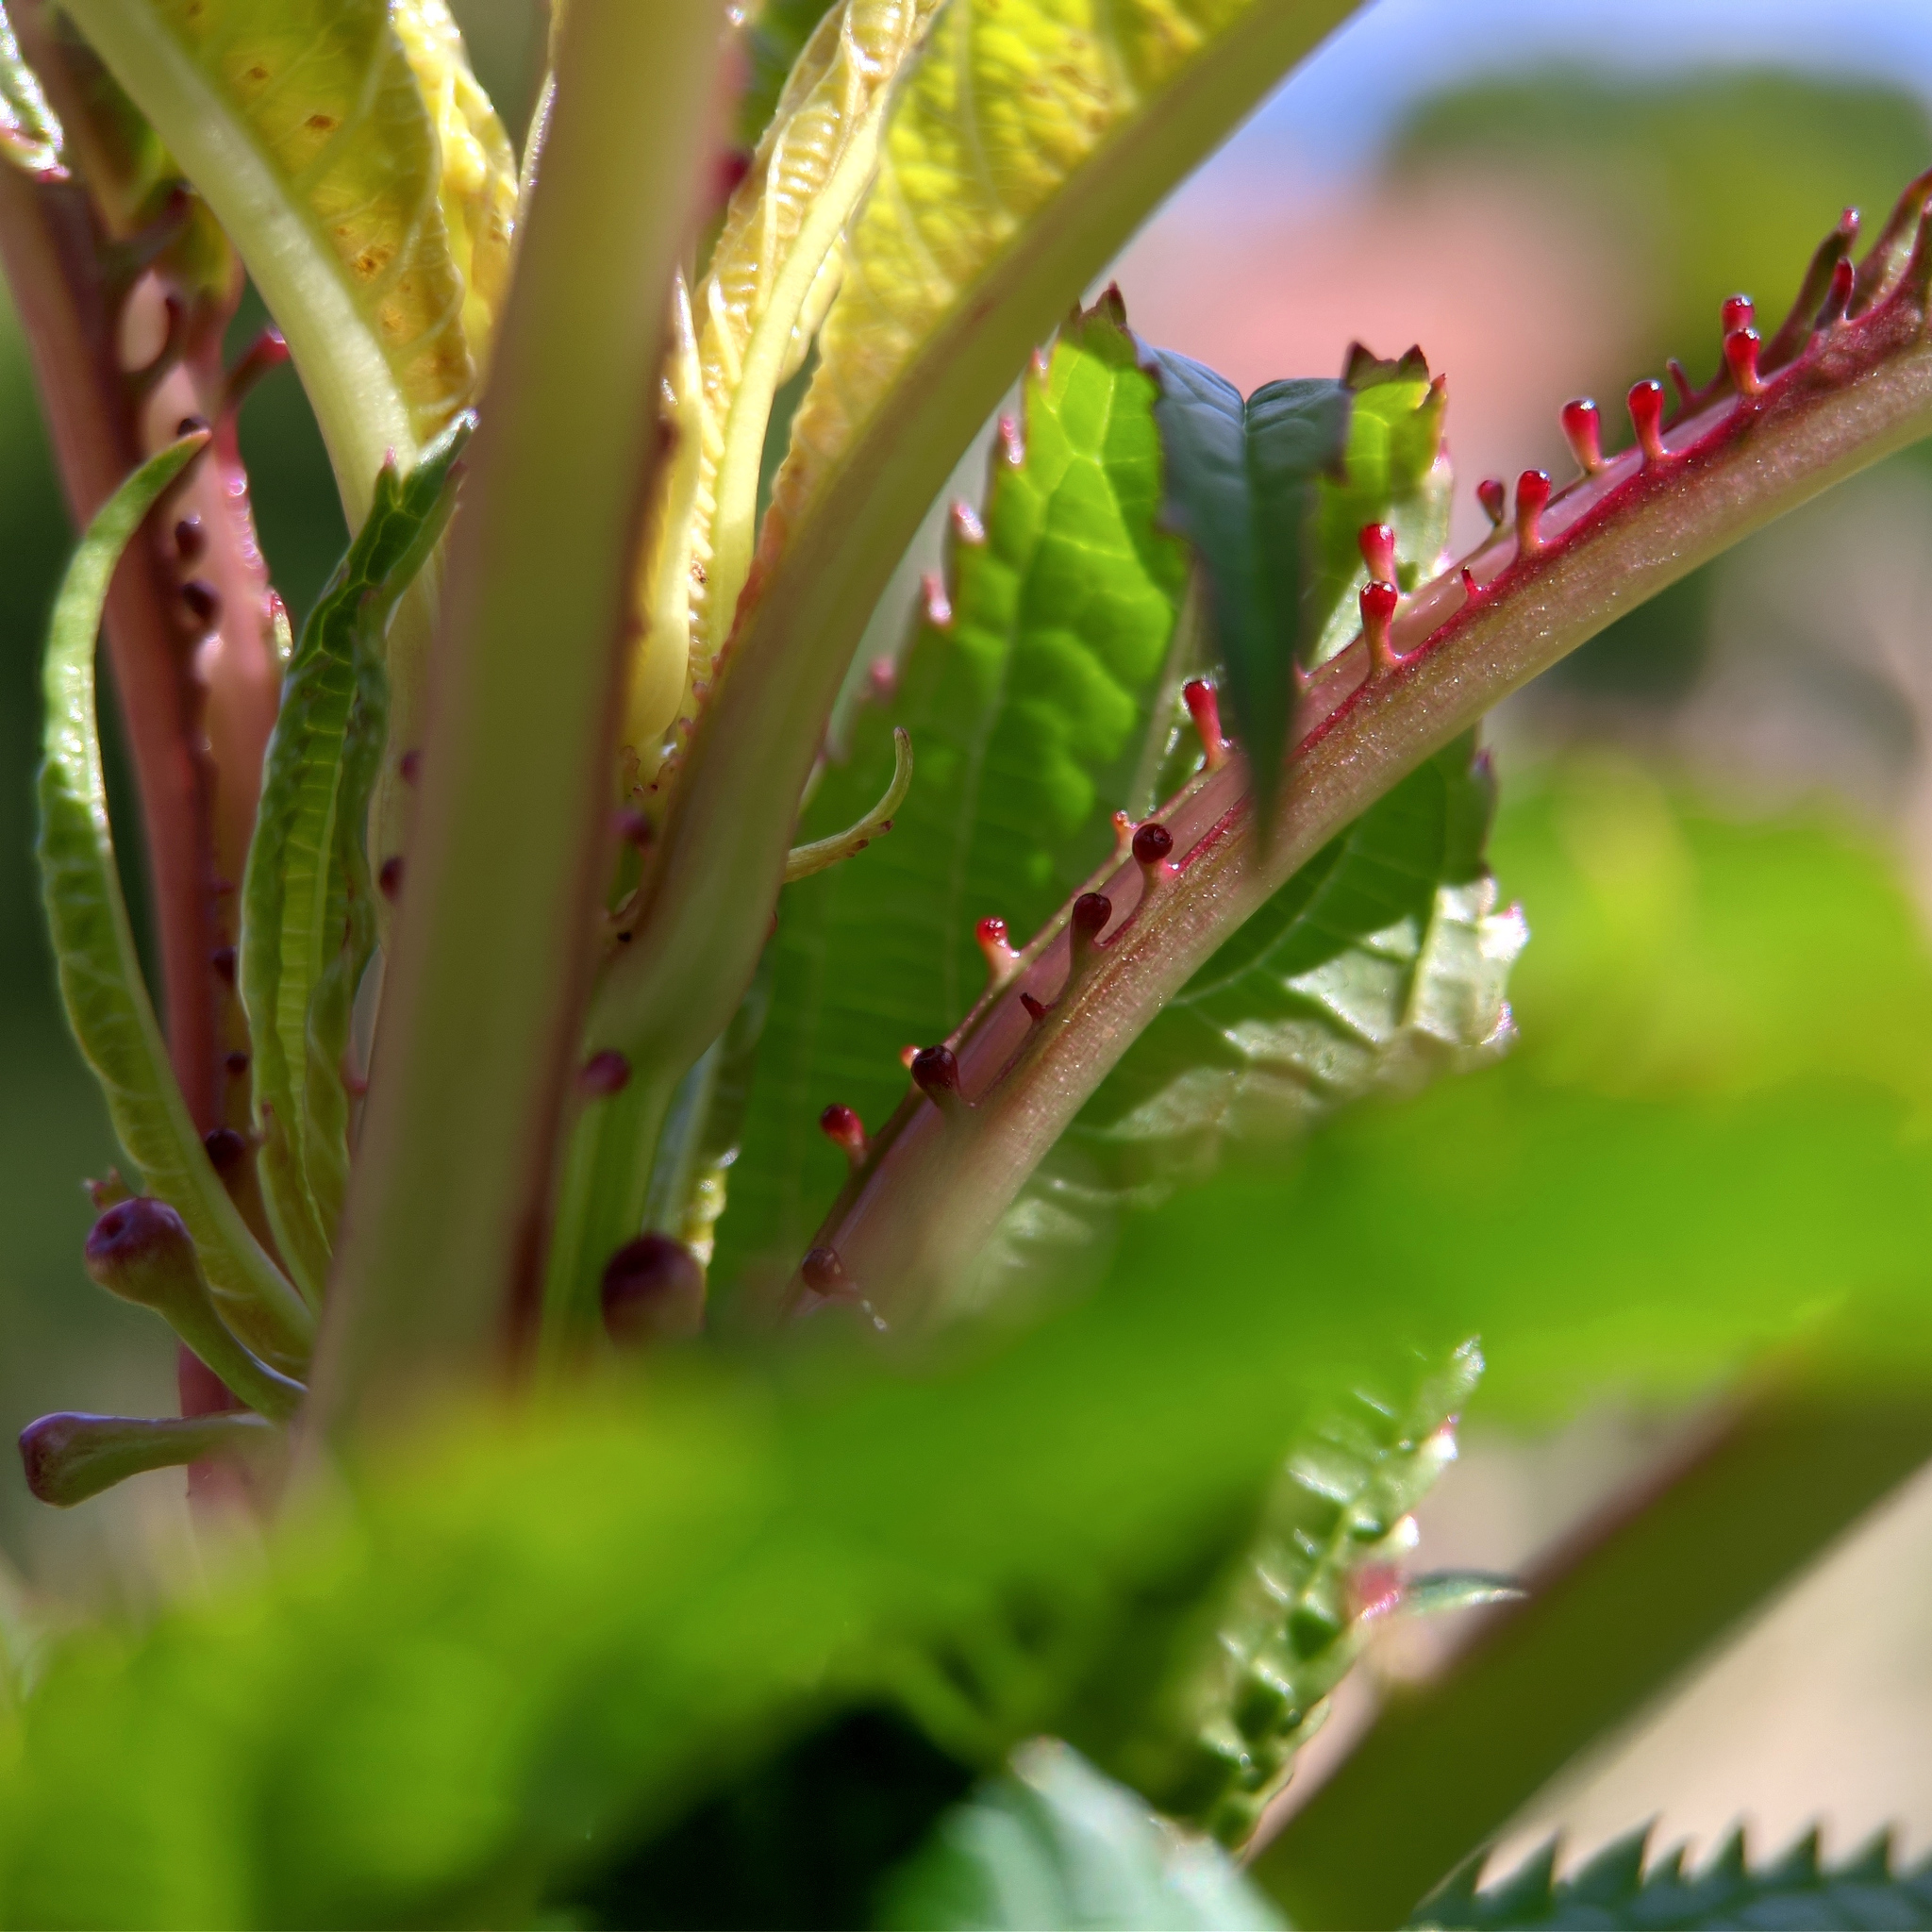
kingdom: Plantae
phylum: Tracheophyta
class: Magnoliopsida
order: Ericales
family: Balsaminaceae
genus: Impatiens
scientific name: Impatiens glandulifera
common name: Himalayan balsam
